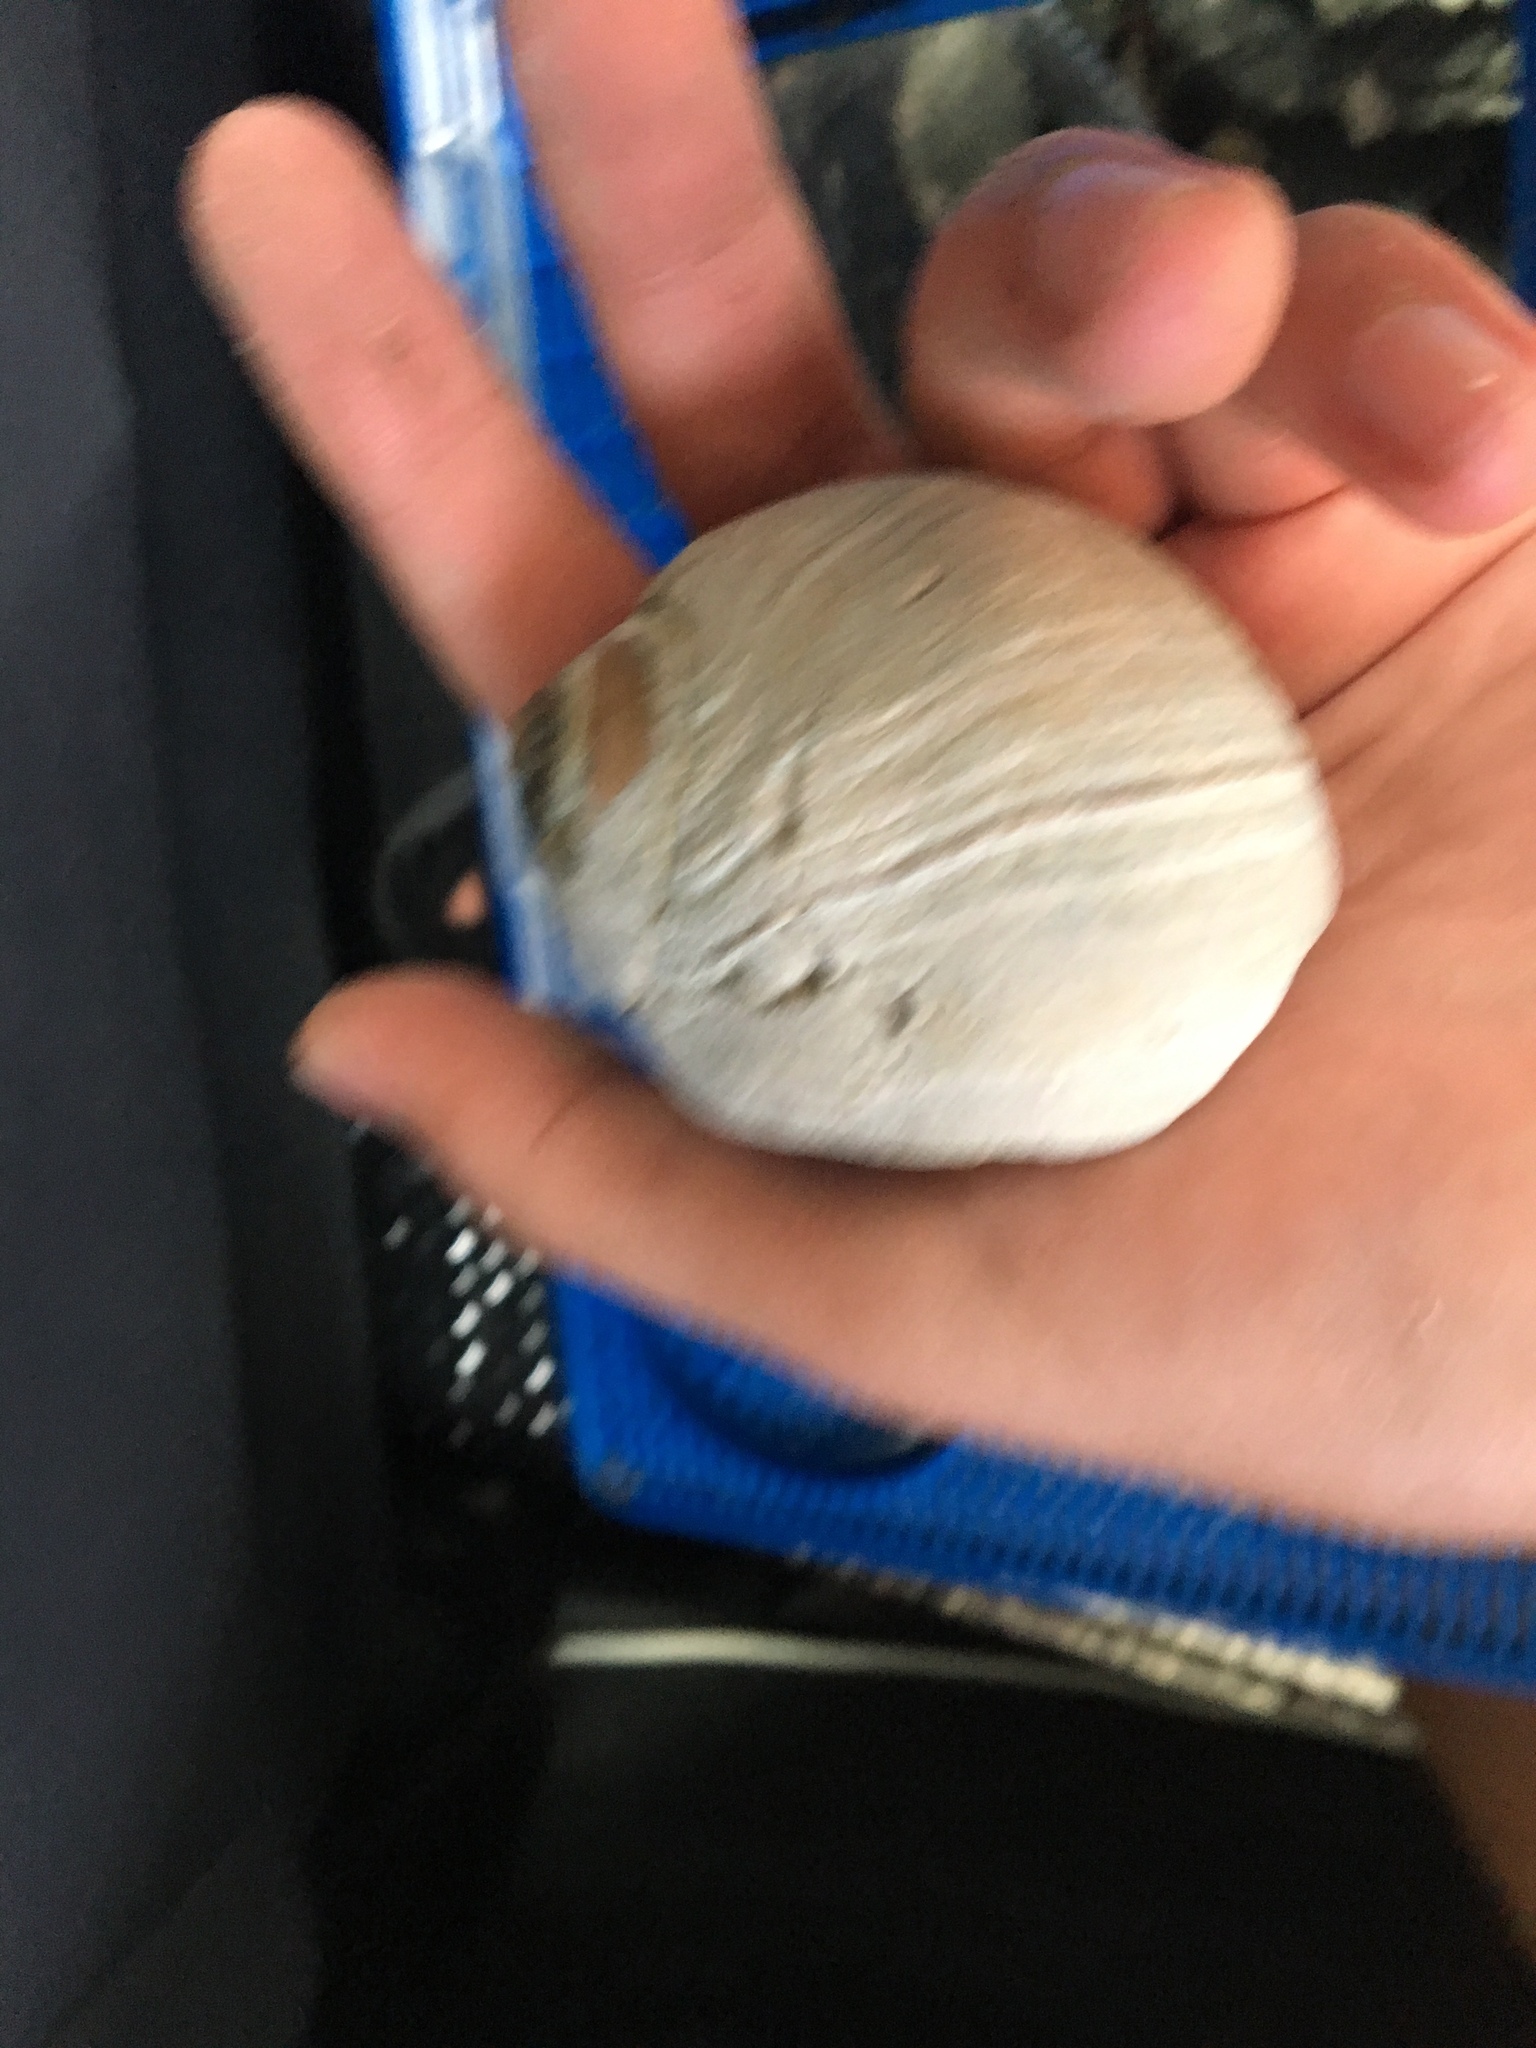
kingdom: Animalia
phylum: Mollusca
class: Gastropoda
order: Littorinimorpha
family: Naticidae
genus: Neverita
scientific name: Neverita lewisii
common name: Lewis' moonsnail
